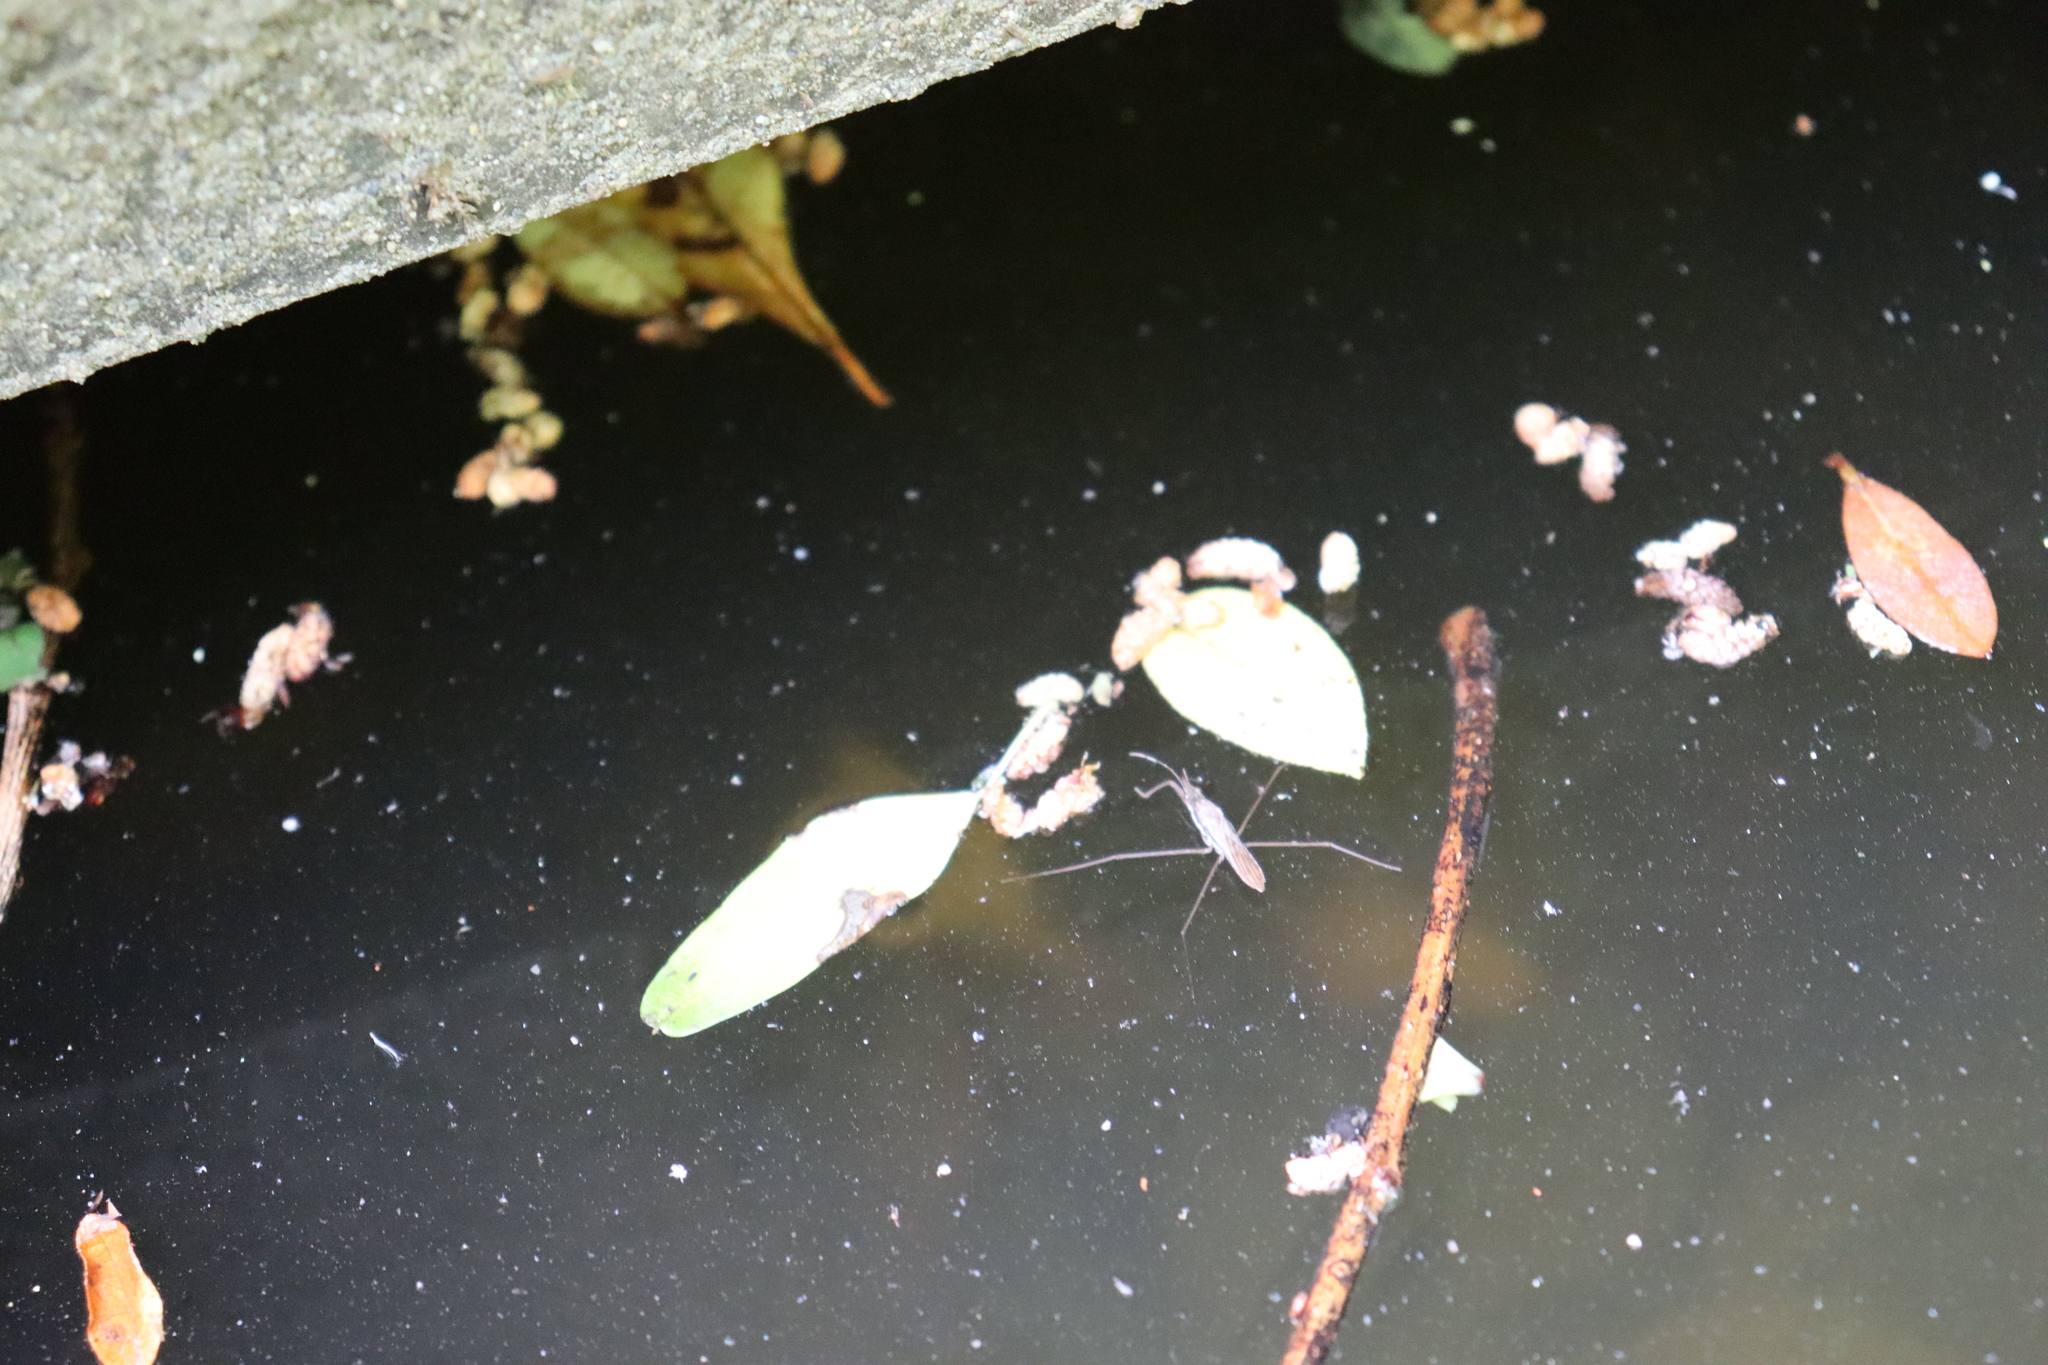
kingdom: Animalia
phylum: Arthropoda
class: Insecta
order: Hemiptera
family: Gerridae
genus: Gerris
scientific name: Gerris gracilicornis
